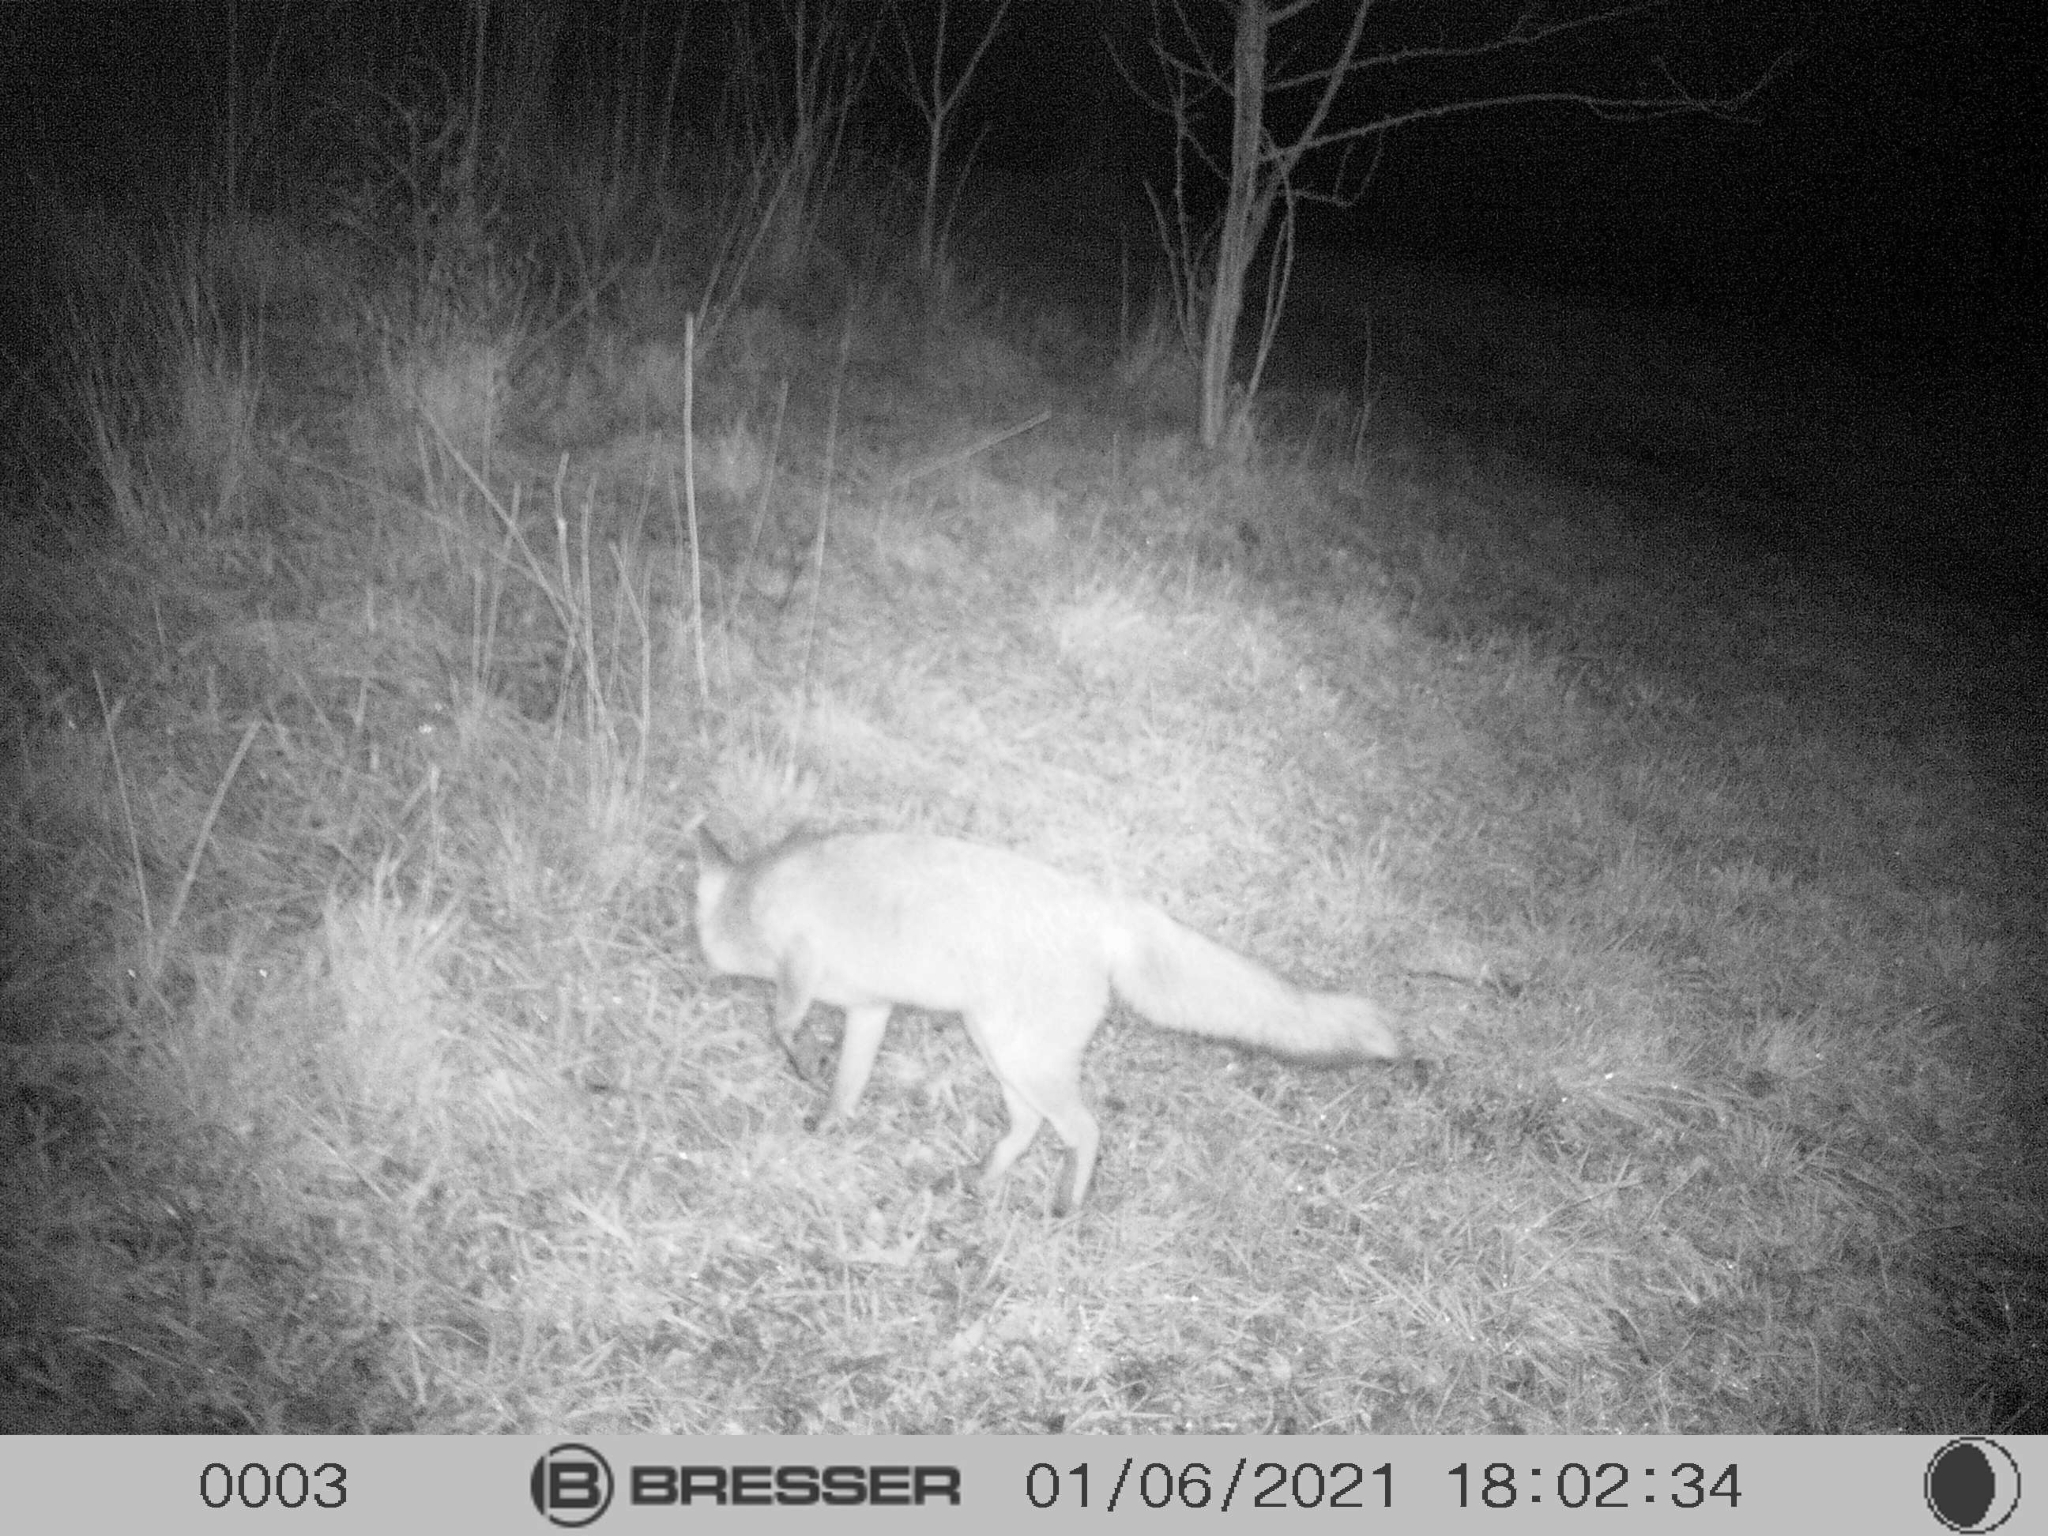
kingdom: Animalia
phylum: Chordata
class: Mammalia
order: Carnivora
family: Canidae
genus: Vulpes
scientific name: Vulpes vulpes
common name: Red fox
